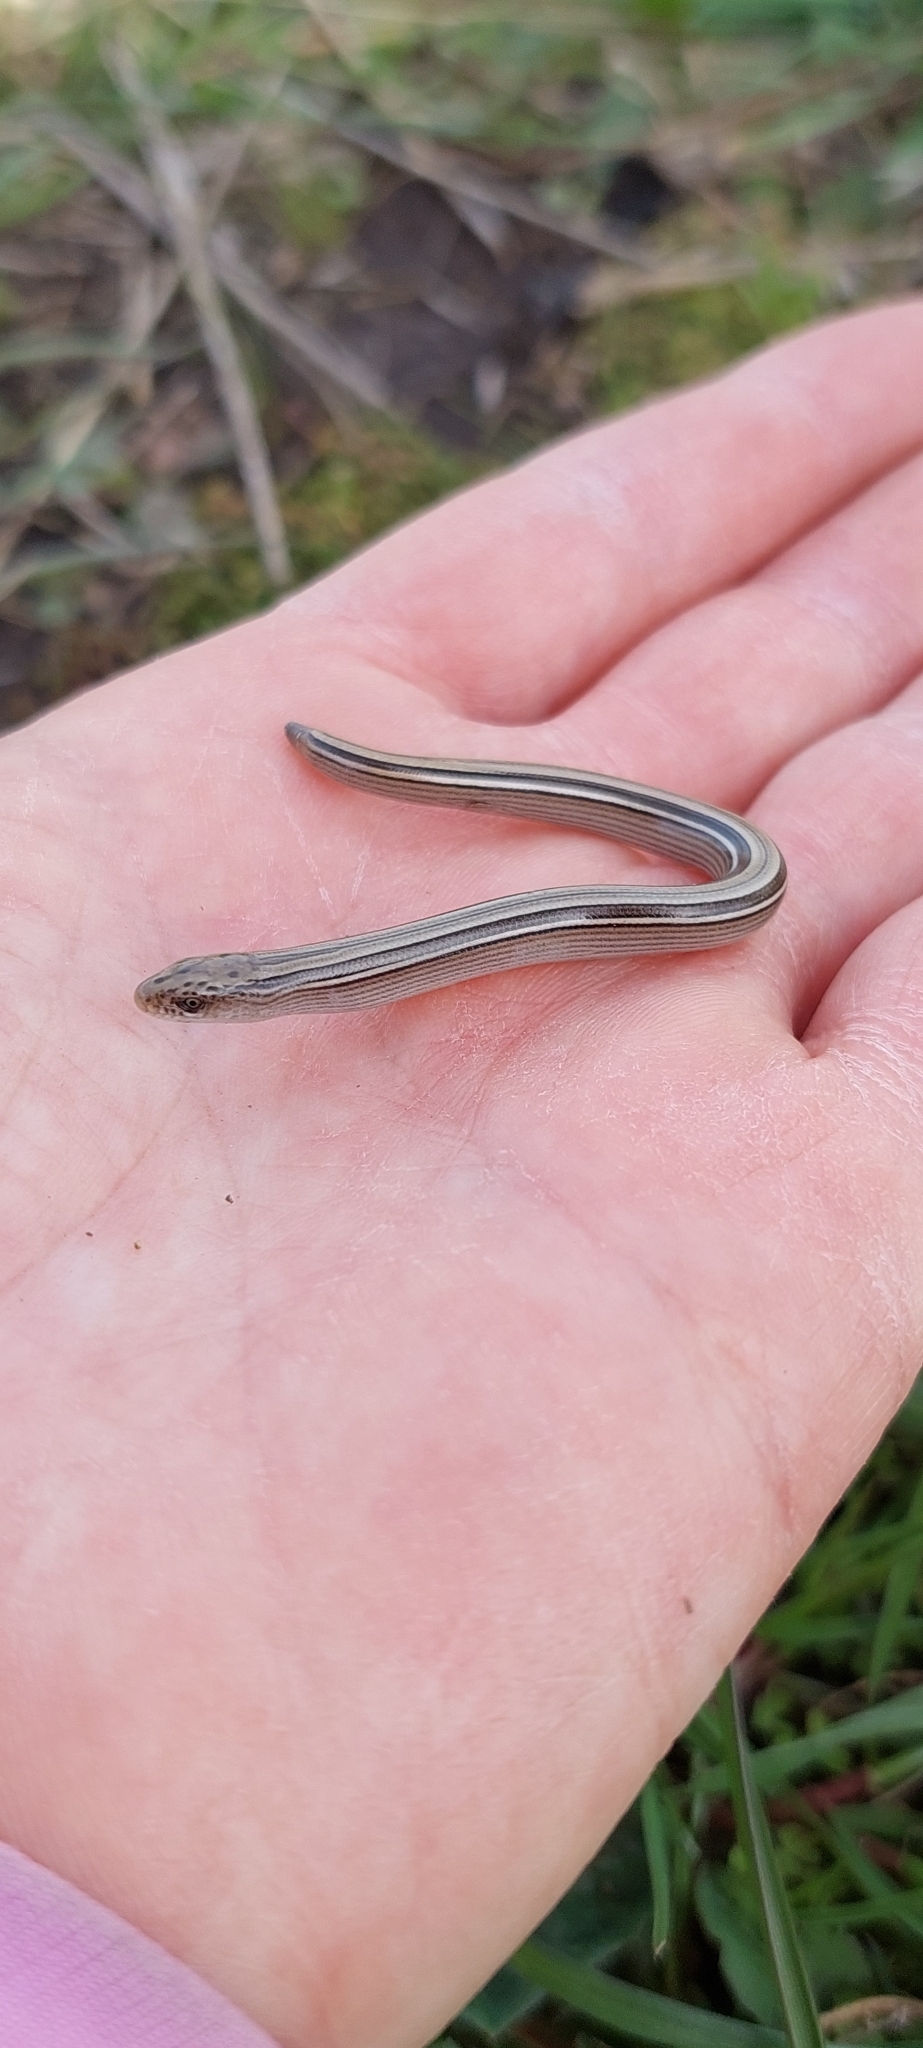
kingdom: Animalia
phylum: Chordata
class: Squamata
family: Diploglossidae
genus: Ophiodes
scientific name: Ophiodes vertebralis
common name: Jointed worm lizard
